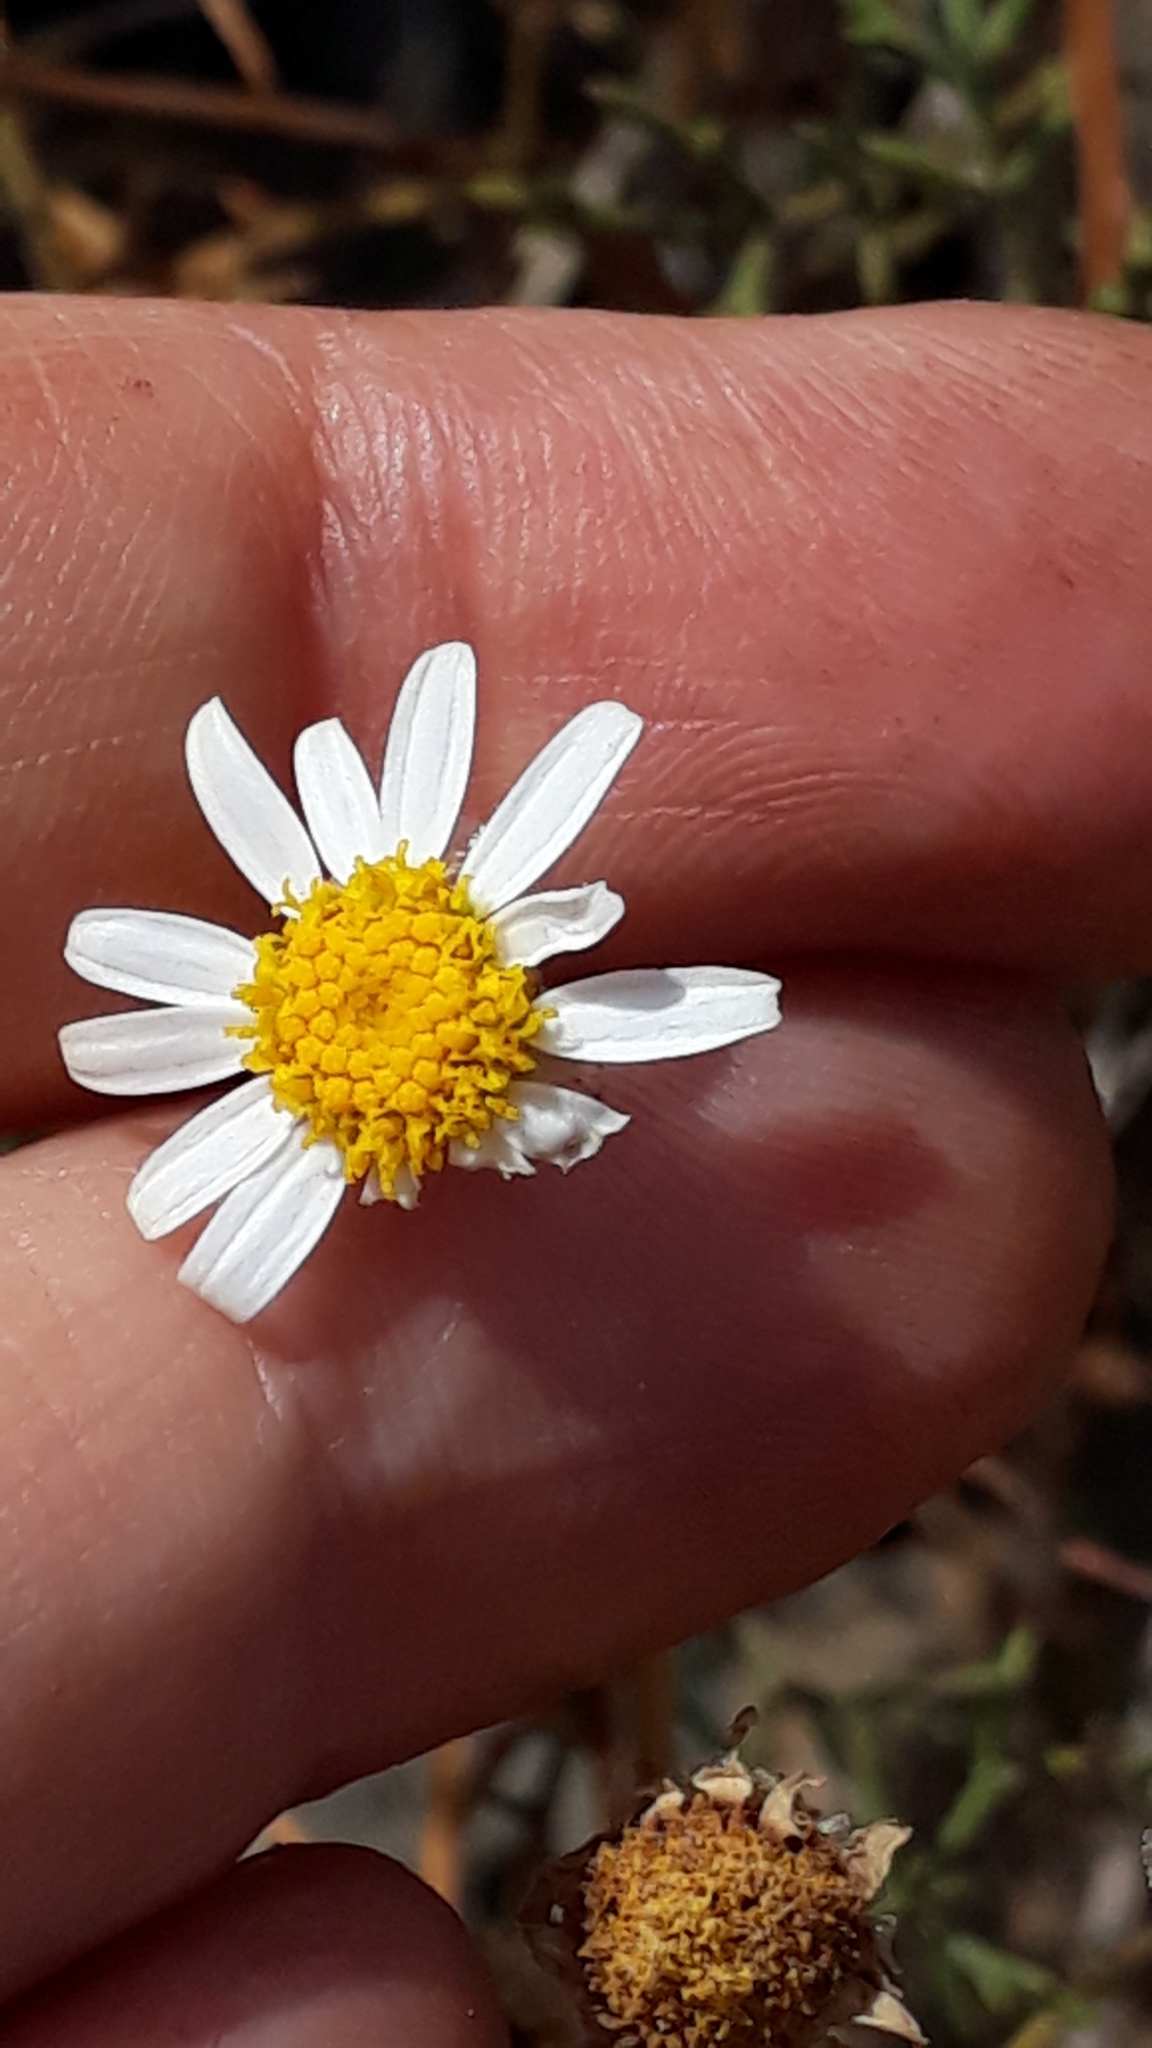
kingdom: Plantae
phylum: Tracheophyta
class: Magnoliopsida
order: Asterales
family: Asteraceae
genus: Argyranthemum
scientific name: Argyranthemum frutescens
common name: Paris daisy
